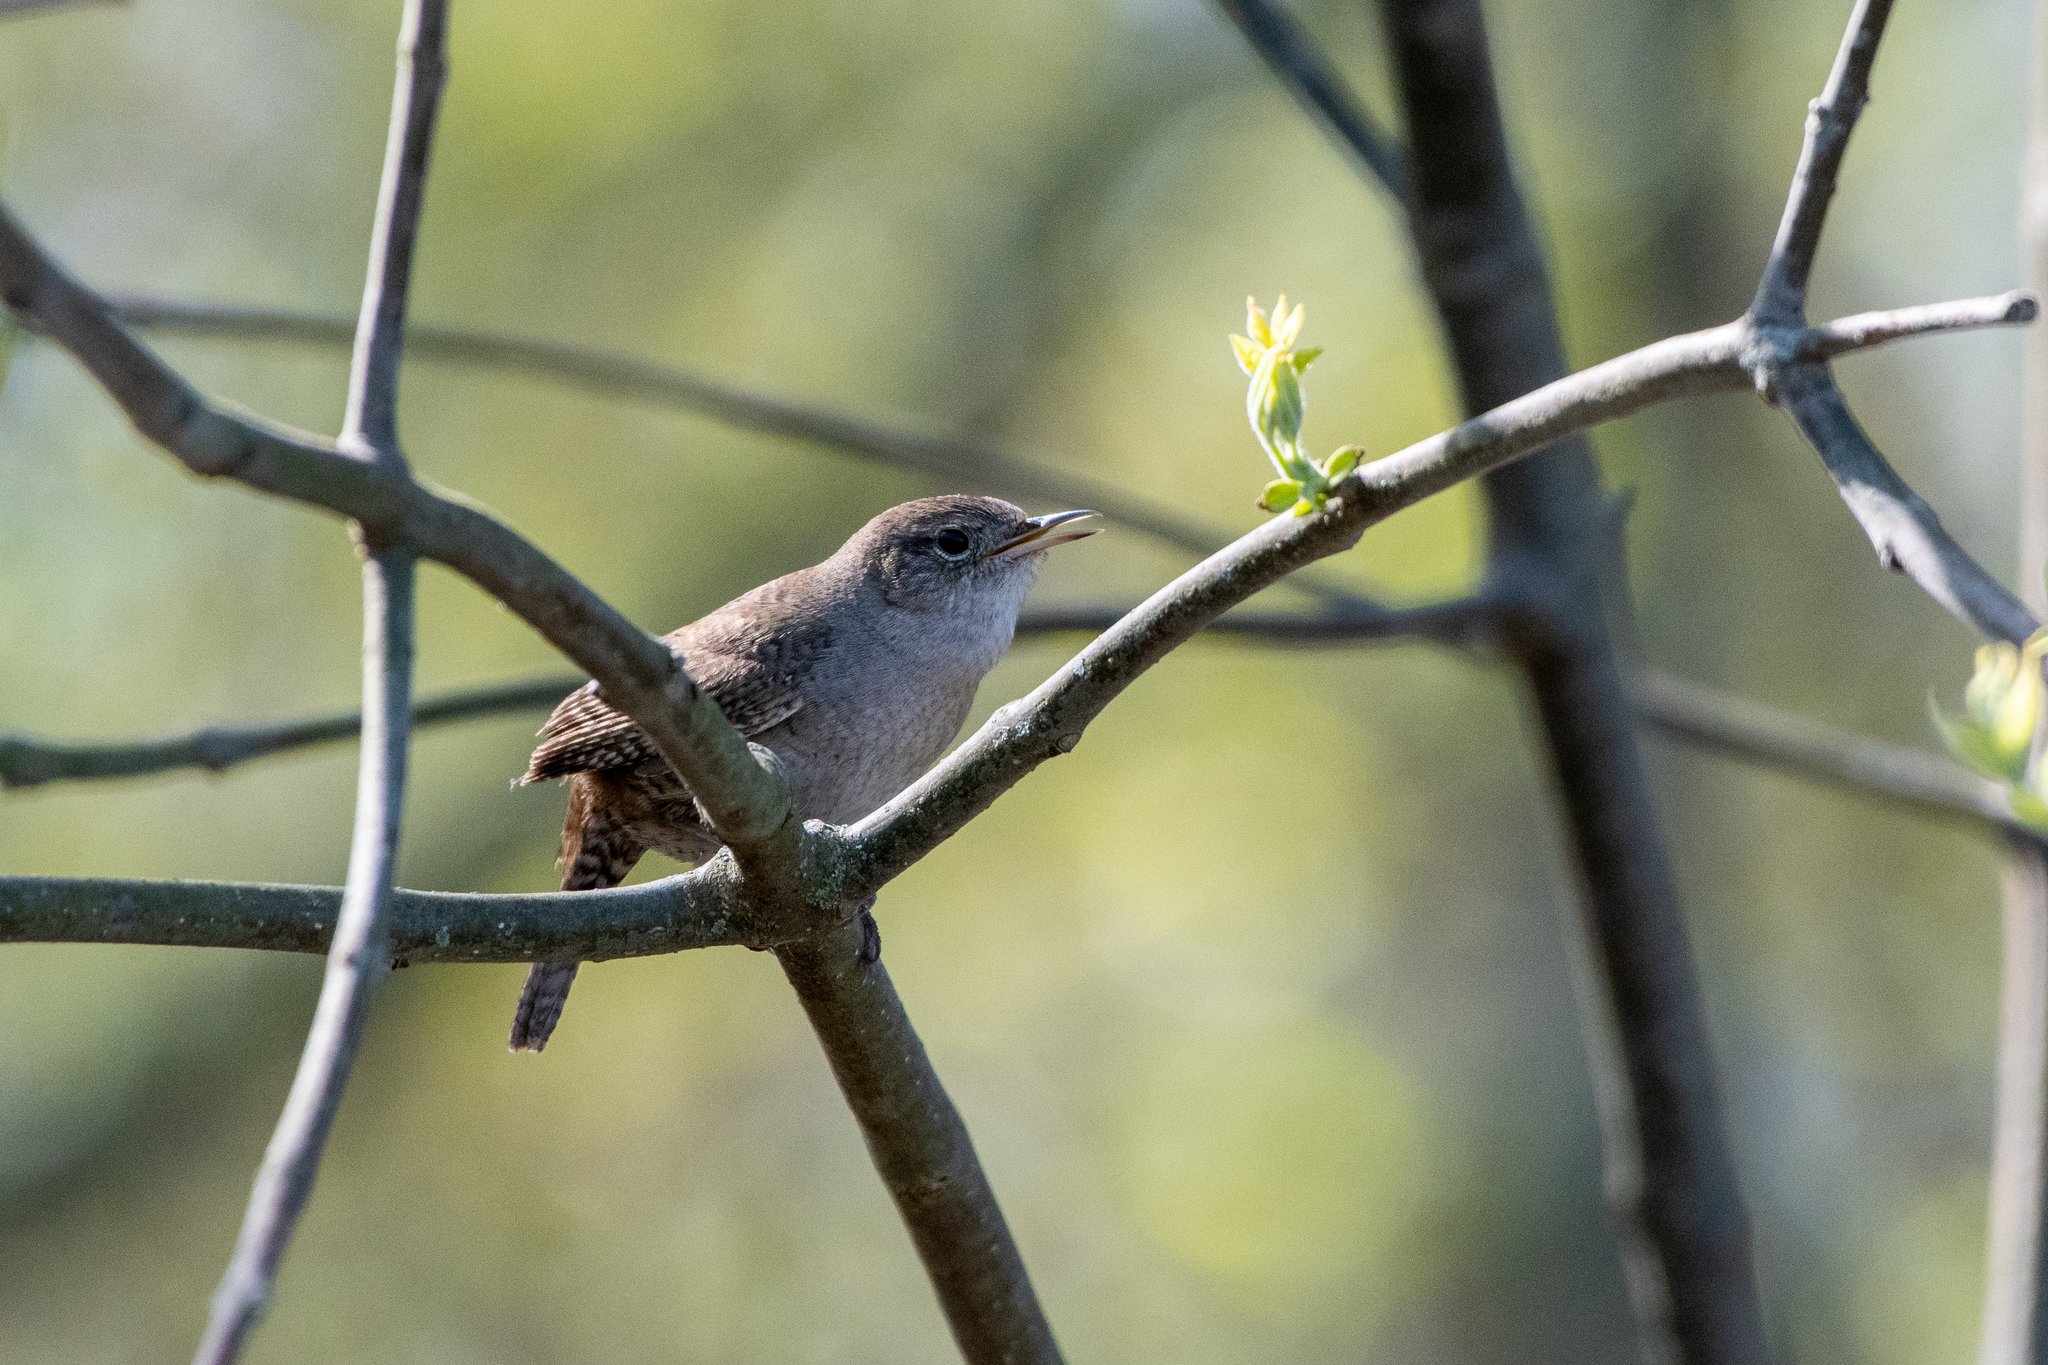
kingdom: Animalia
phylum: Chordata
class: Aves
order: Passeriformes
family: Troglodytidae
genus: Troglodytes
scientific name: Troglodytes aedon
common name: House wren
